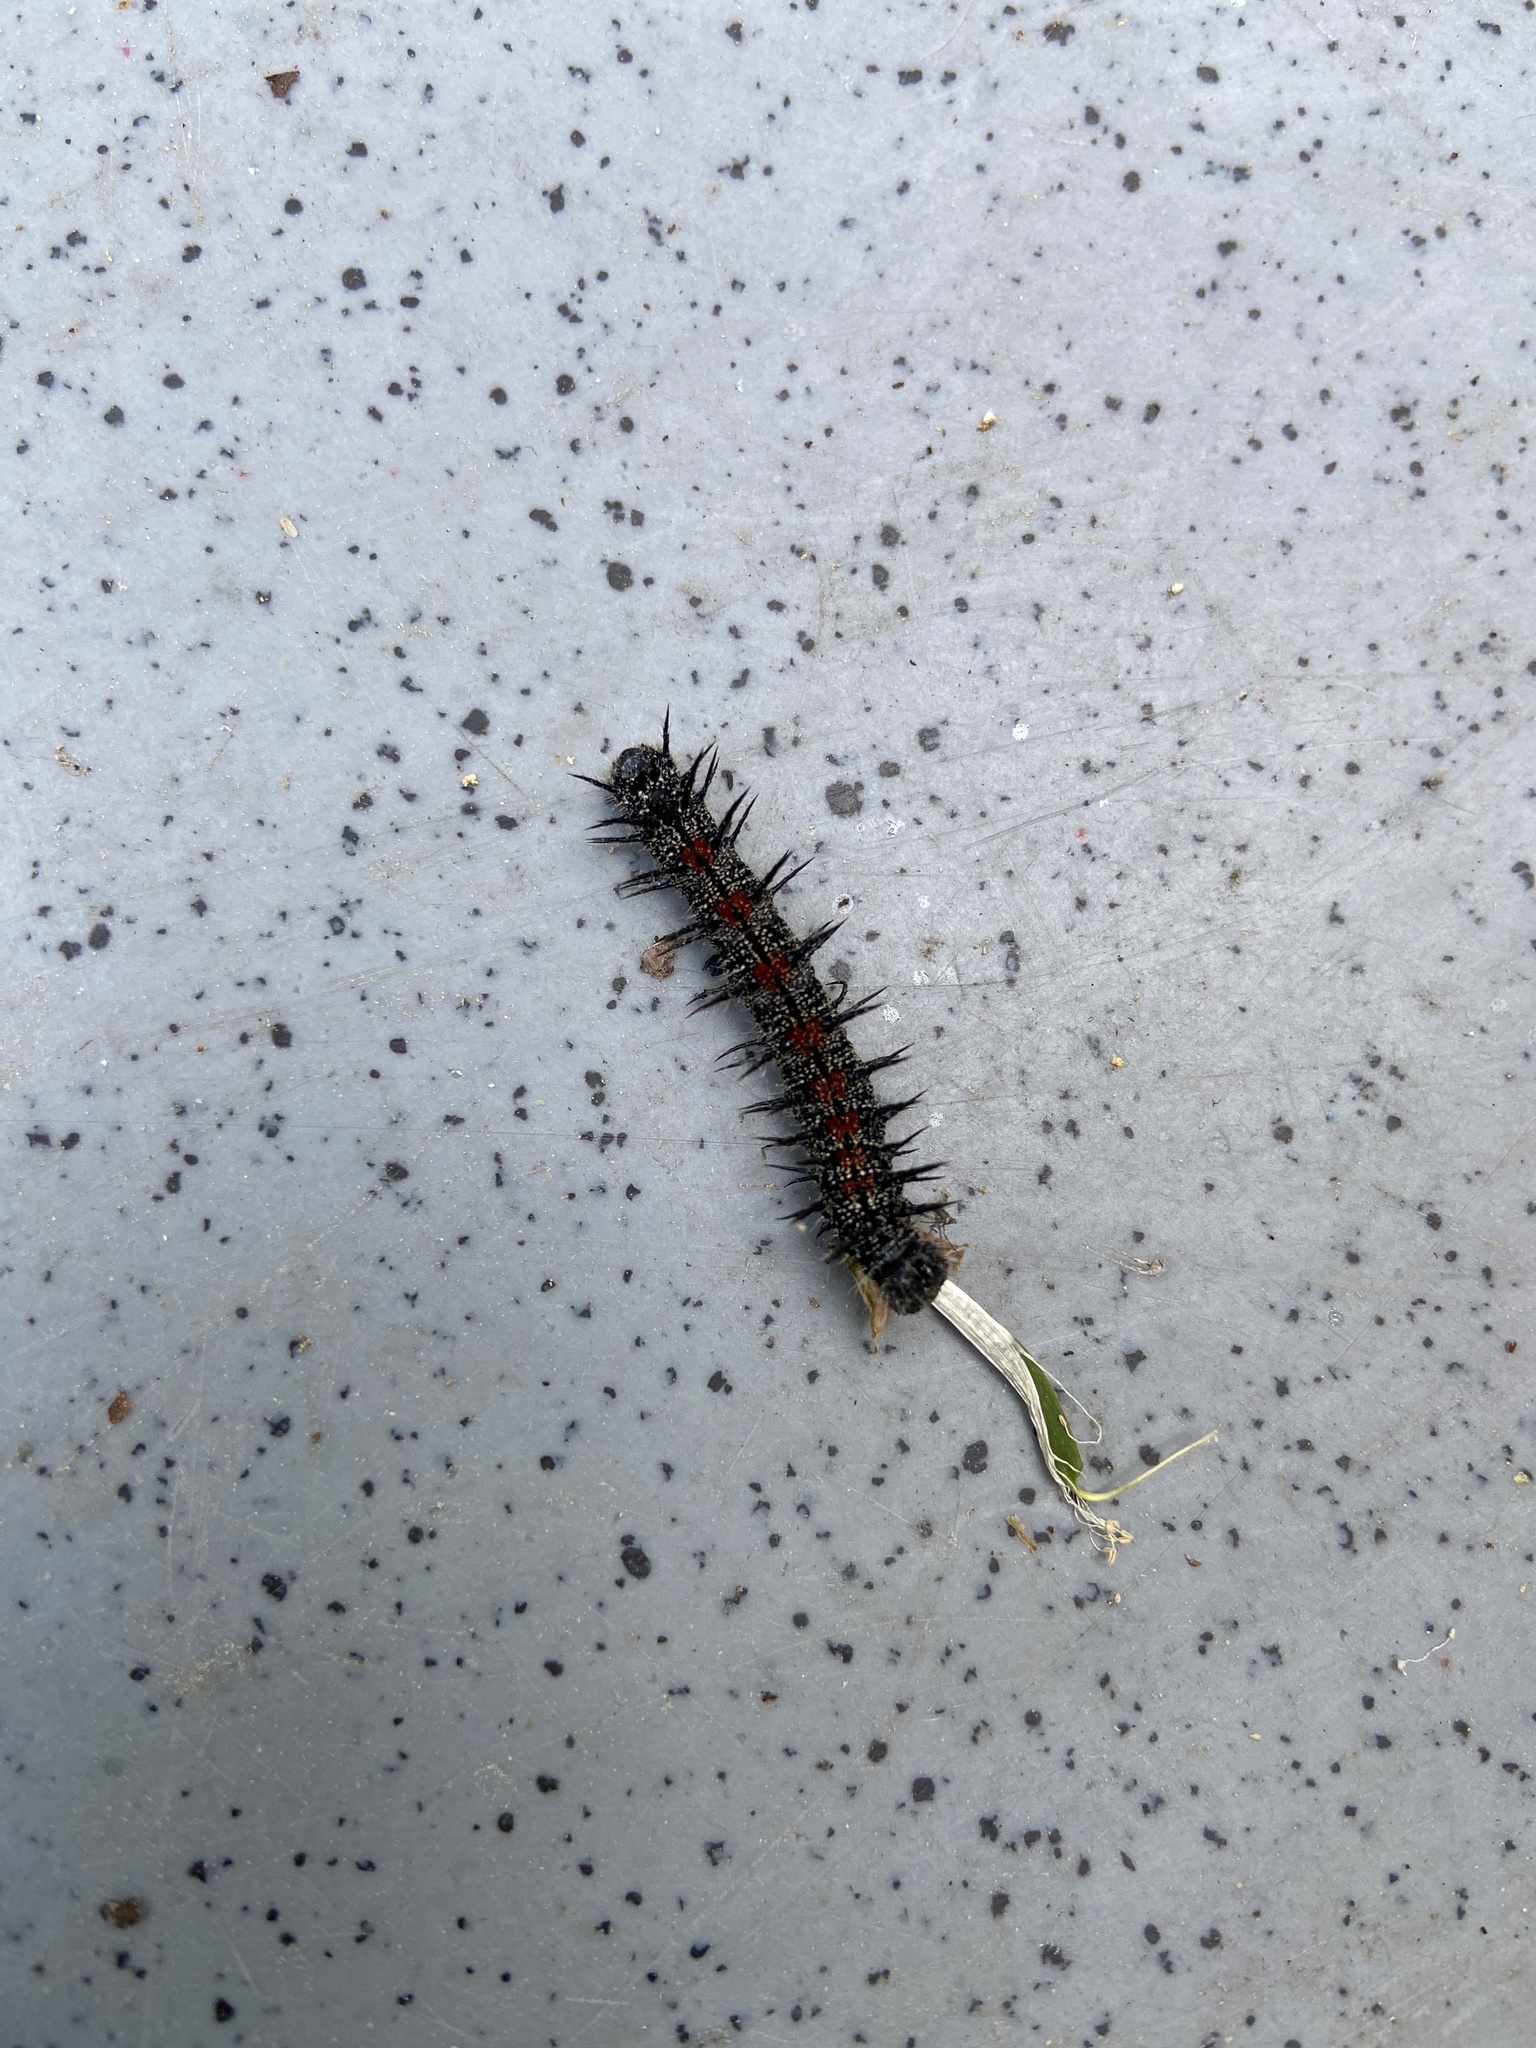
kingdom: Animalia
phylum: Arthropoda
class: Insecta
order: Lepidoptera
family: Nymphalidae
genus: Nymphalis
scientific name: Nymphalis antiopa
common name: Camberwell beauty
